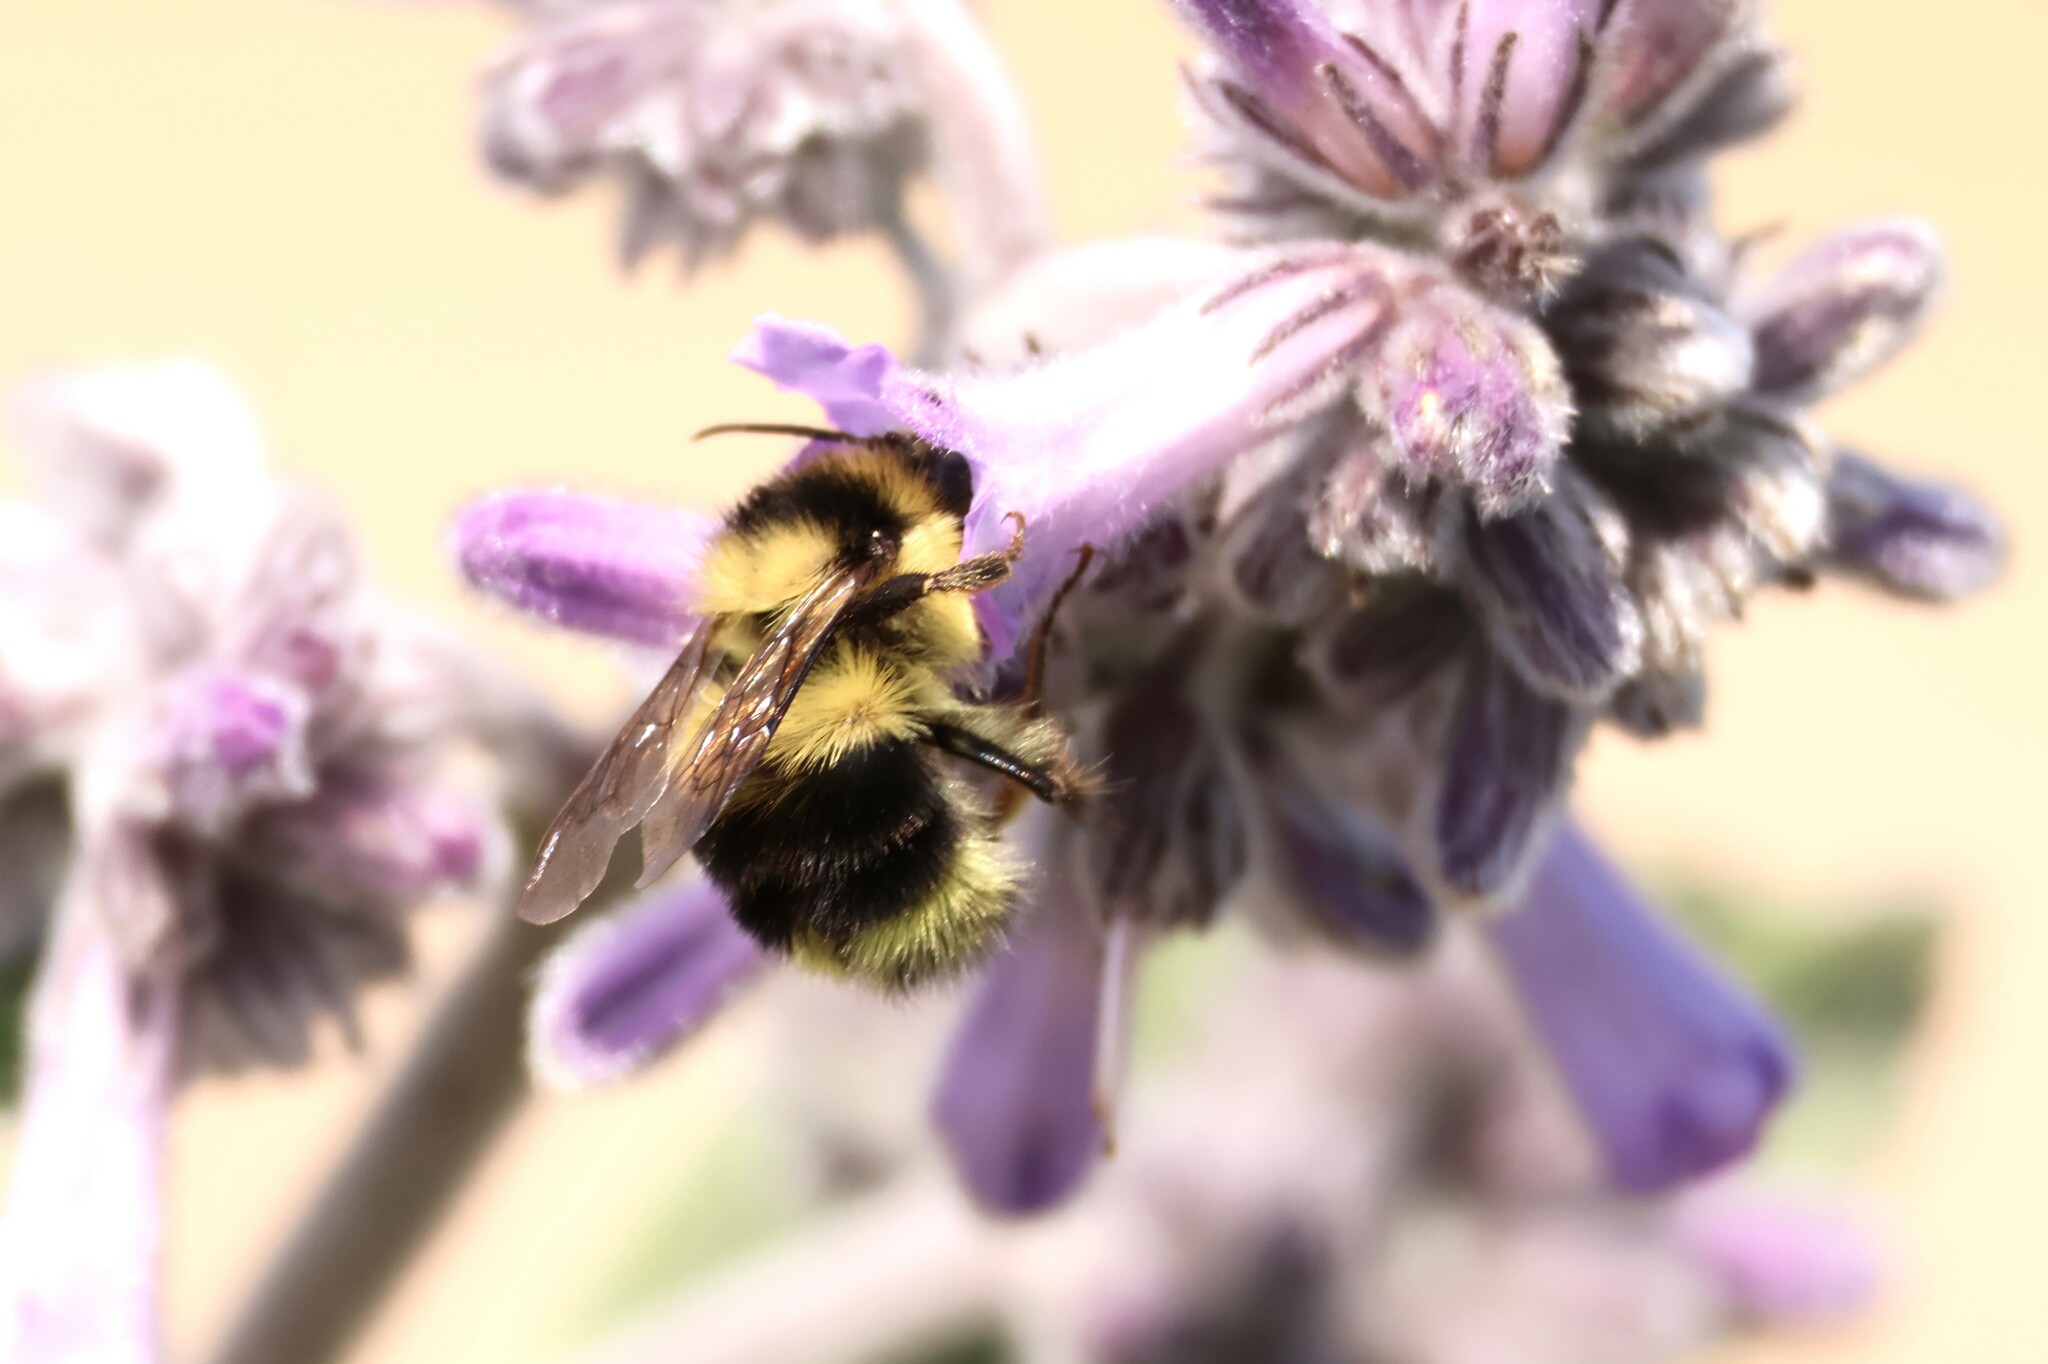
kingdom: Animalia
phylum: Arthropoda
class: Insecta
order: Hymenoptera
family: Apidae
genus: Bombus
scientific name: Bombus melanopygus
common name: Black tail bumble bee
